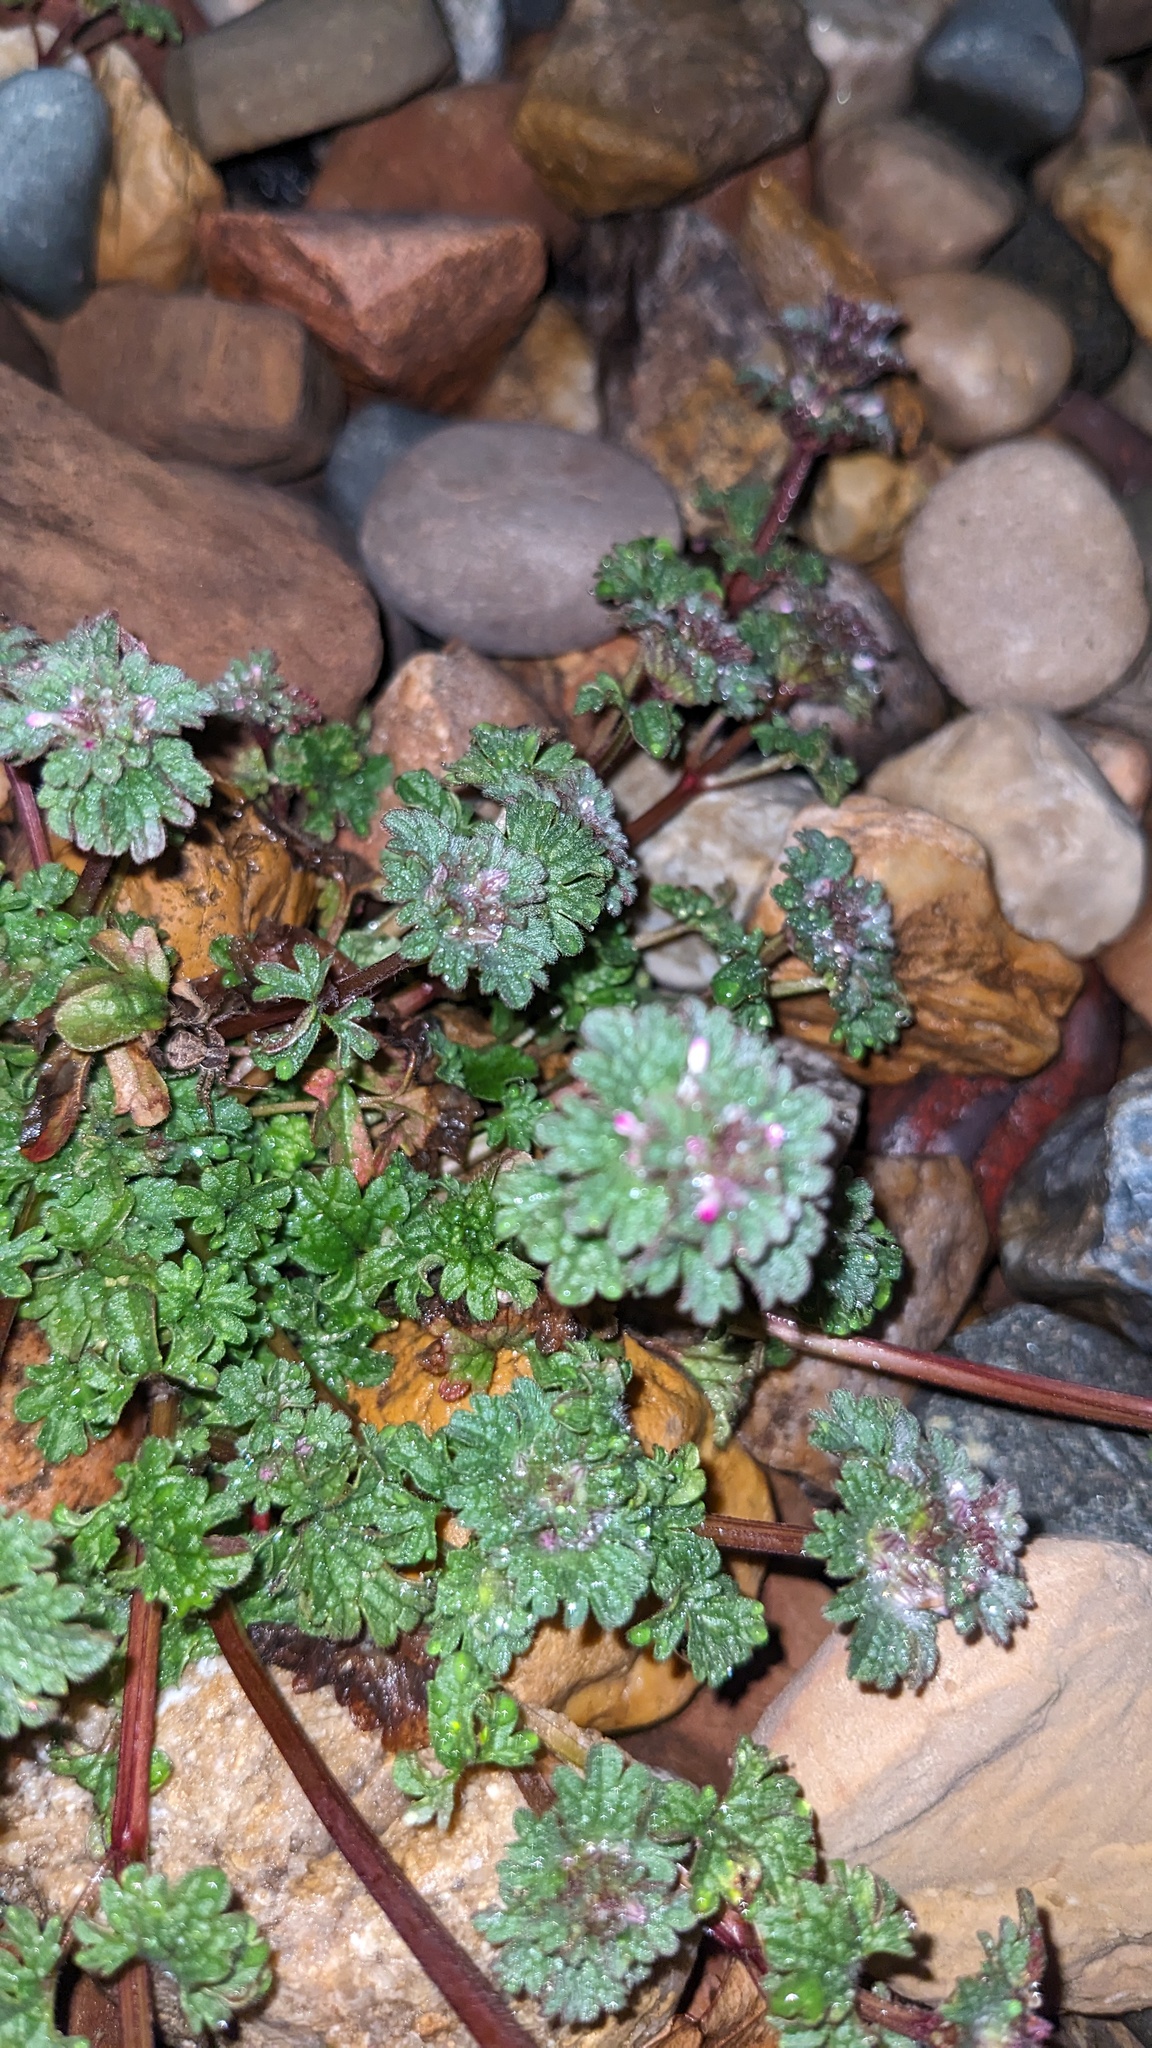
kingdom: Fungi
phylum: Ascomycota
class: Leotiomycetes
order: Helotiales
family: Erysiphaceae
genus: Neoerysiphe
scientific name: Neoerysiphe galeopsidis
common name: Mint mildew
